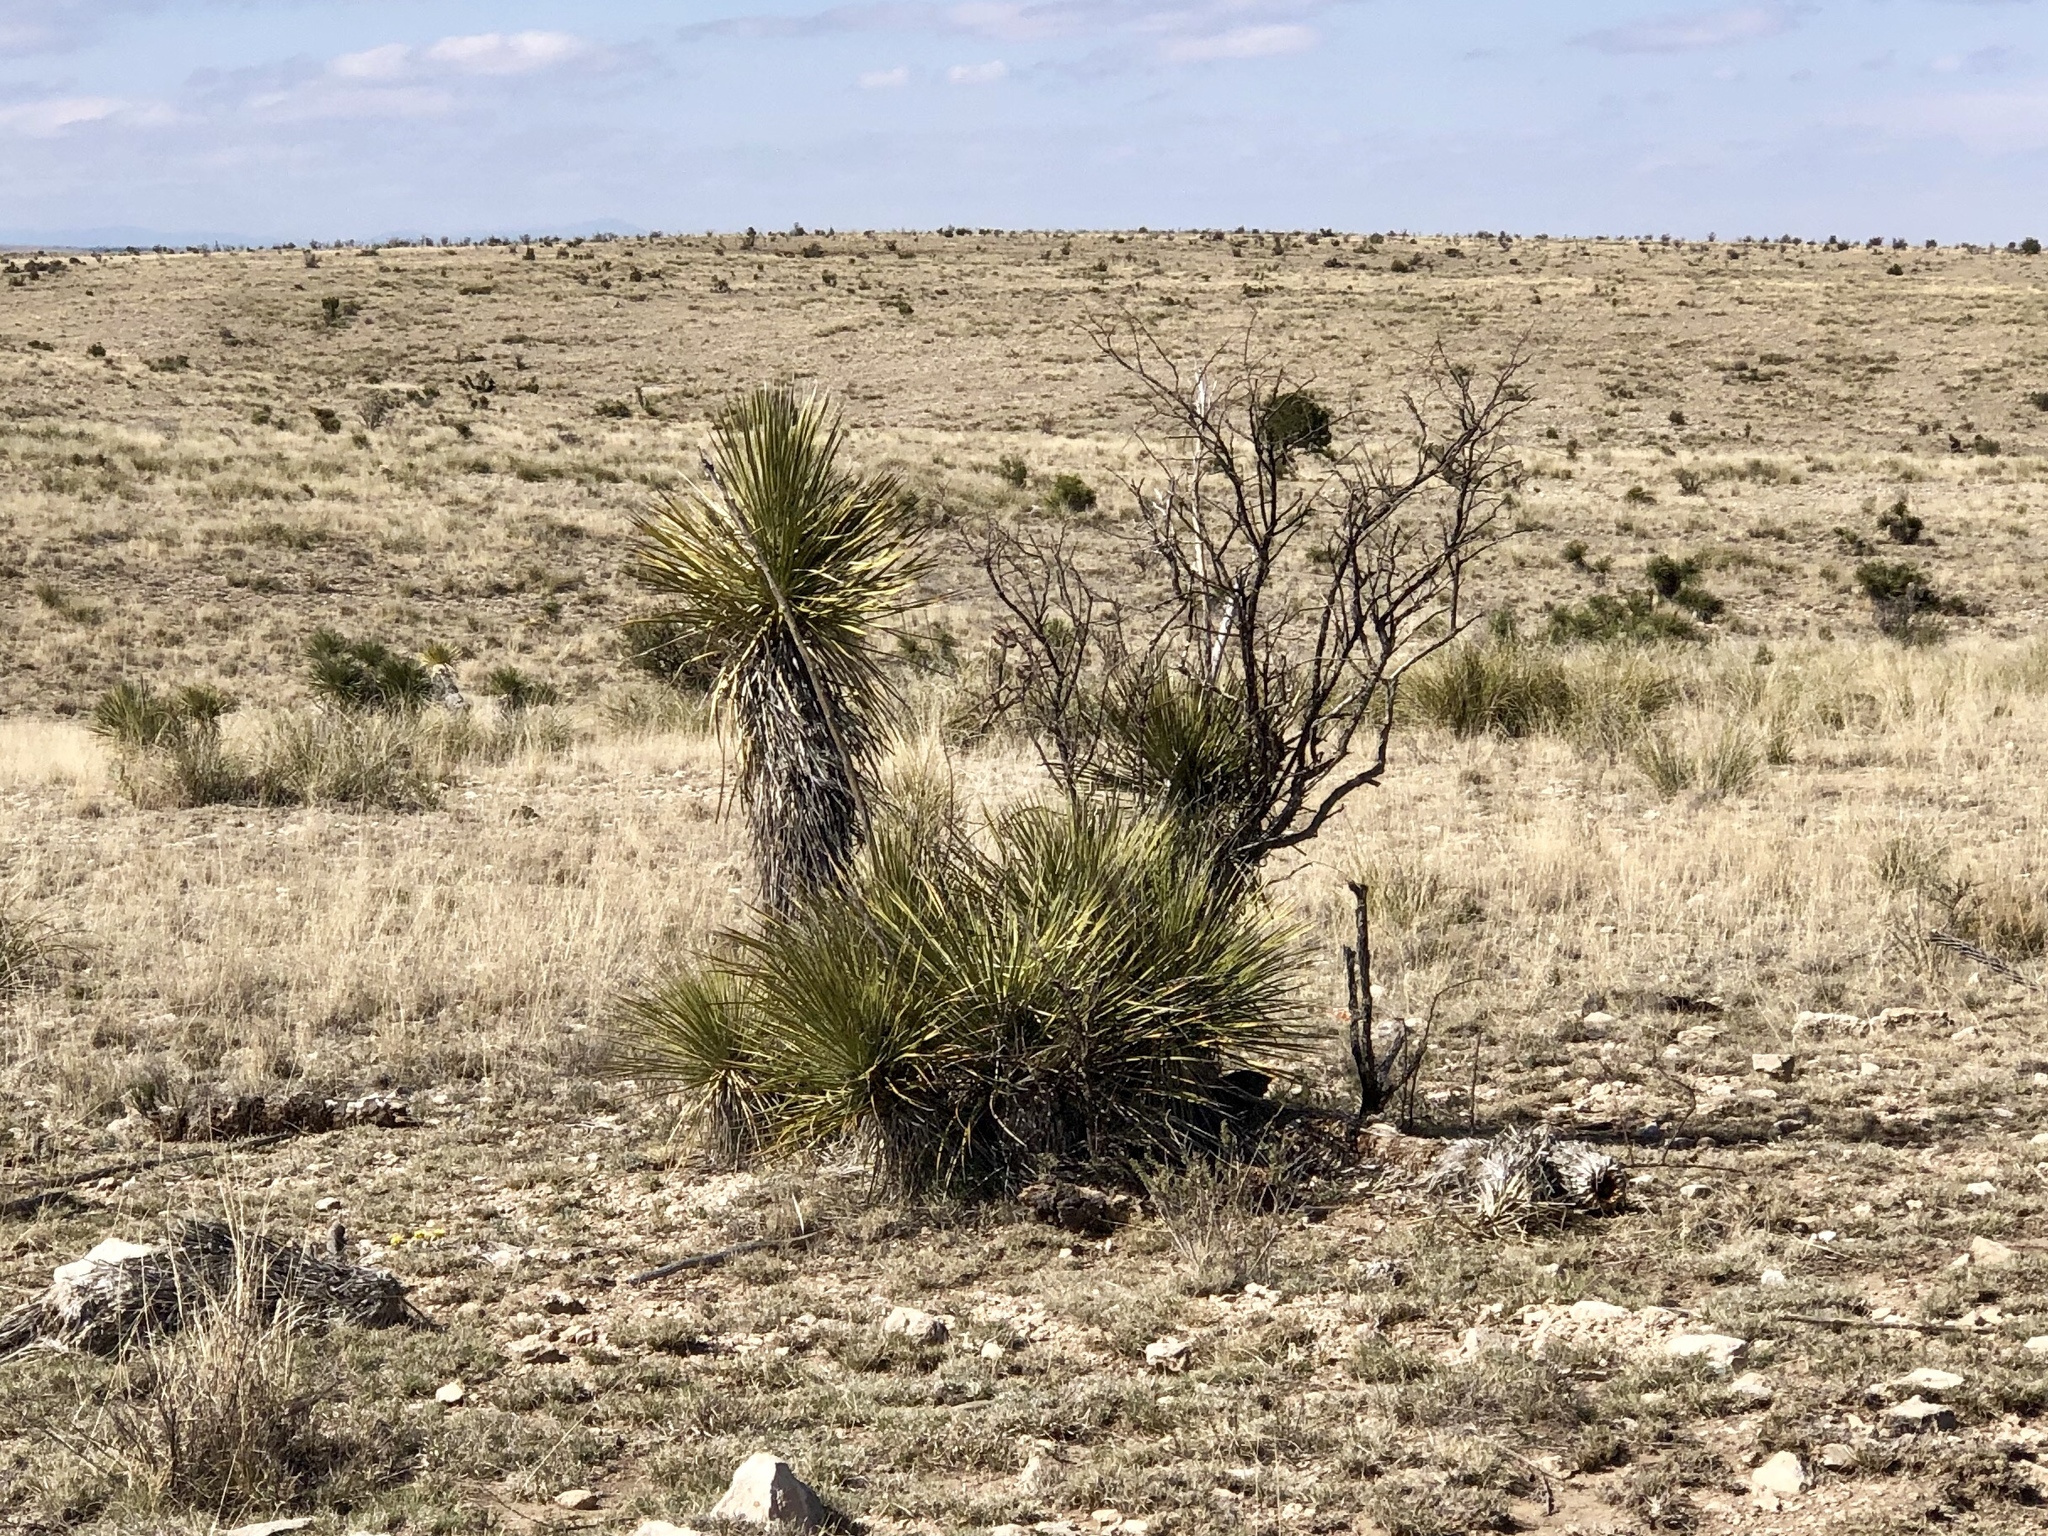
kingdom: Plantae
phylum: Tracheophyta
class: Liliopsida
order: Asparagales
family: Asparagaceae
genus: Yucca
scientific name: Yucca elata
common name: Palmella
